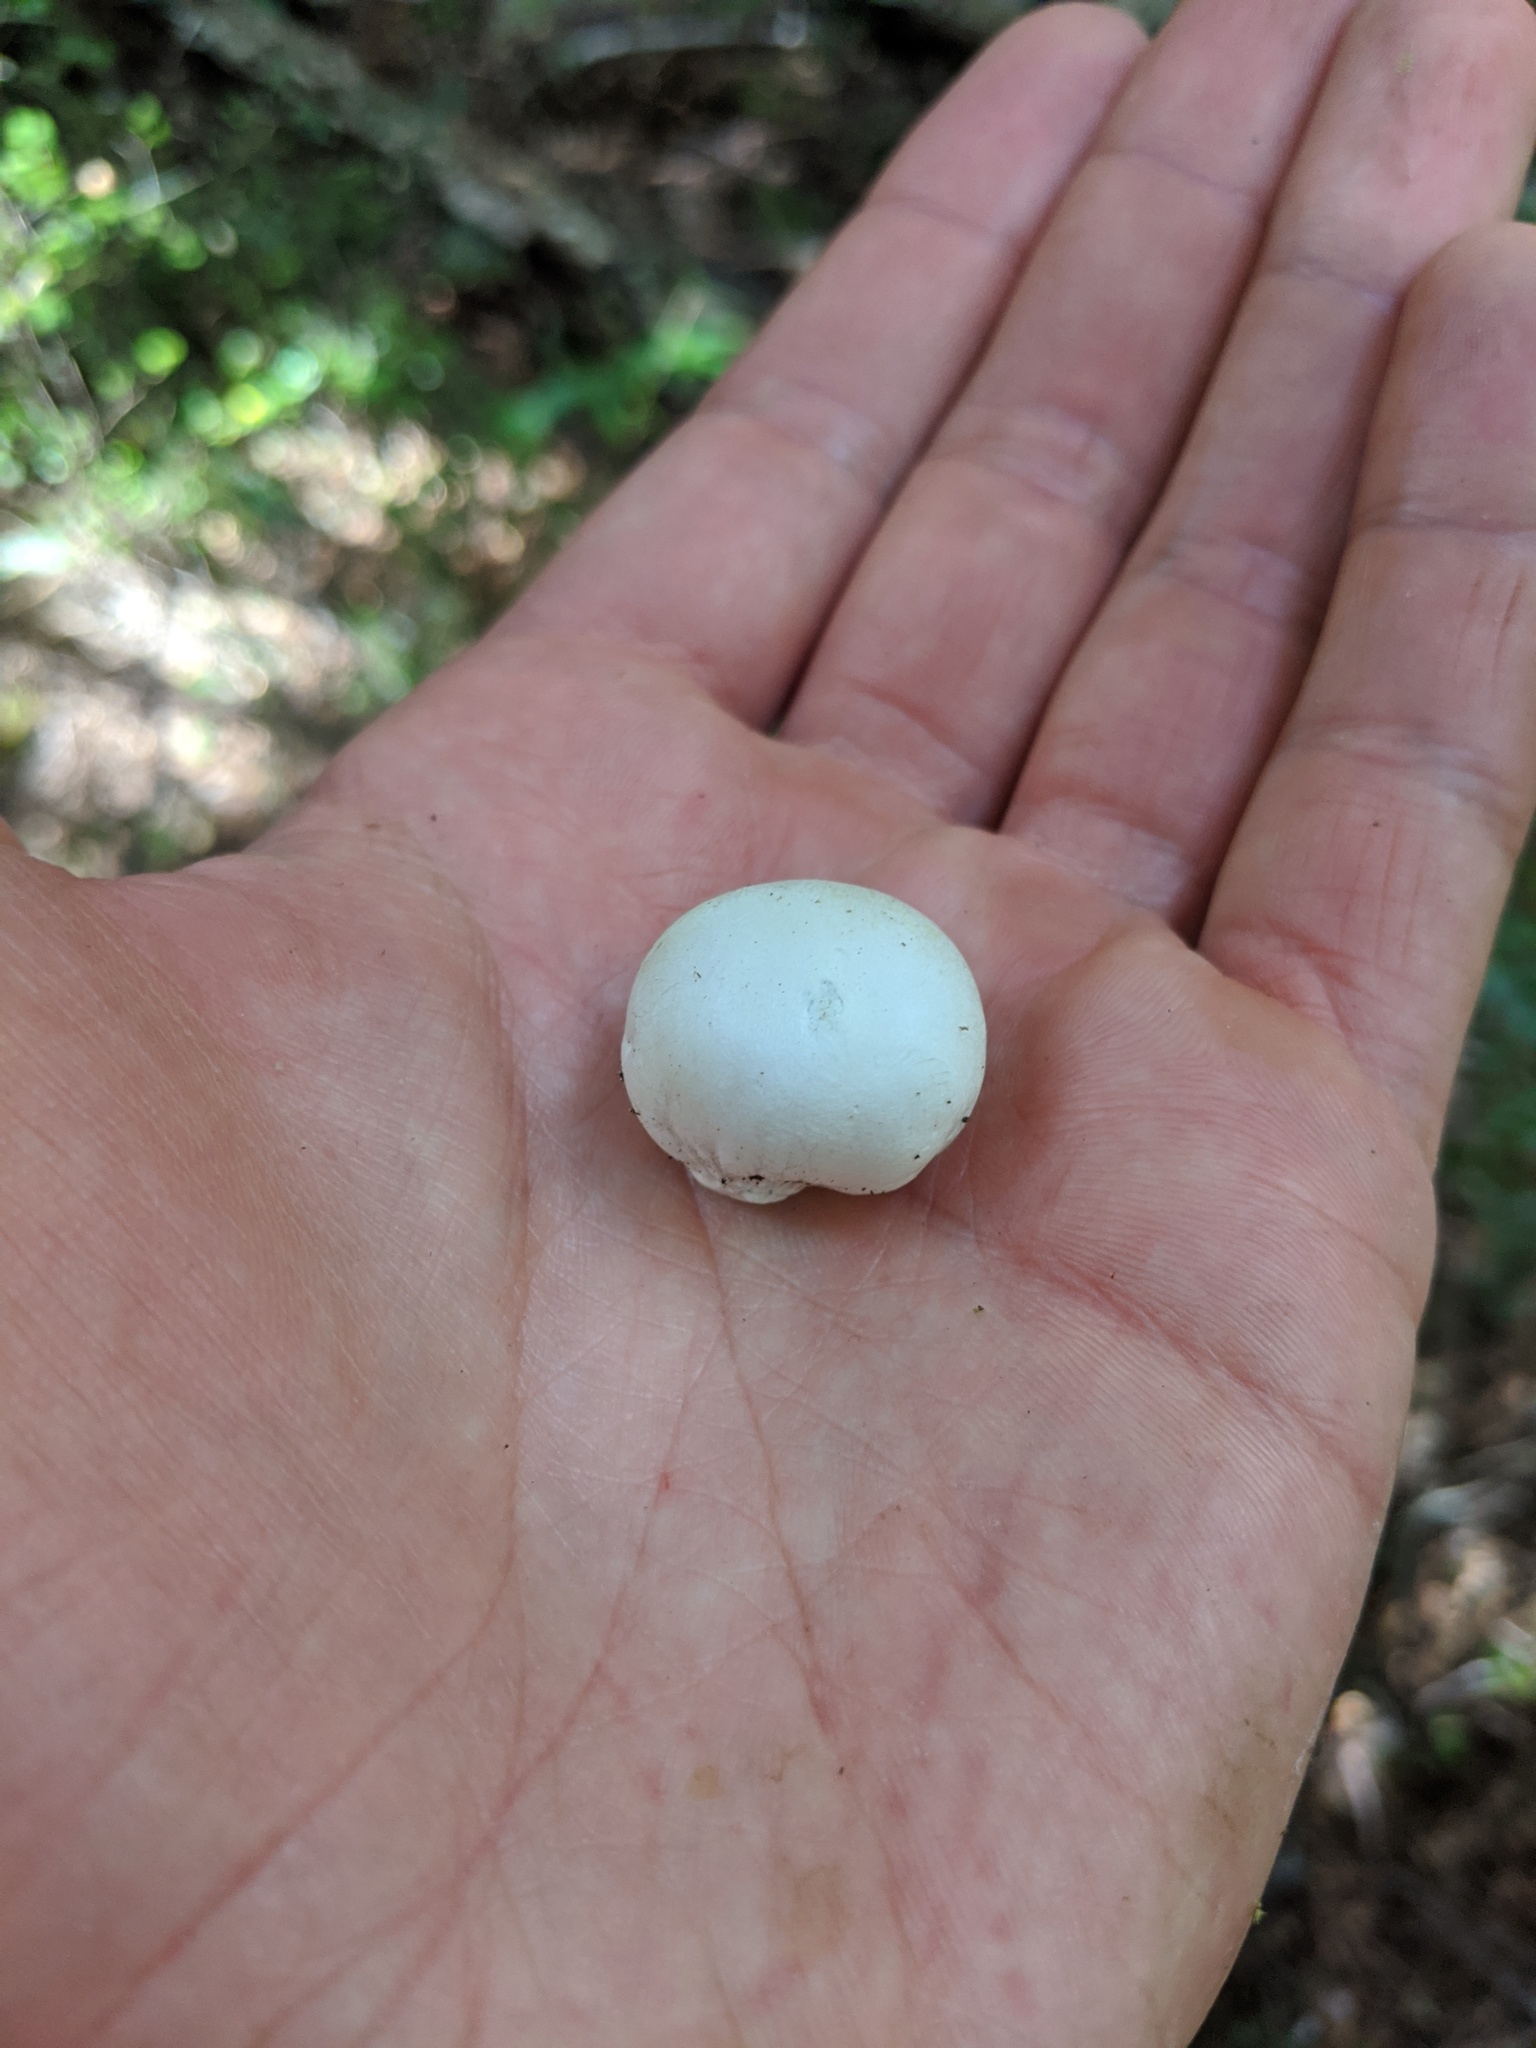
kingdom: Fungi
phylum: Basidiomycota
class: Agaricomycetes
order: Boletales
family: Boletaceae
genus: Leccinum
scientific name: Leccinum pachyderme
